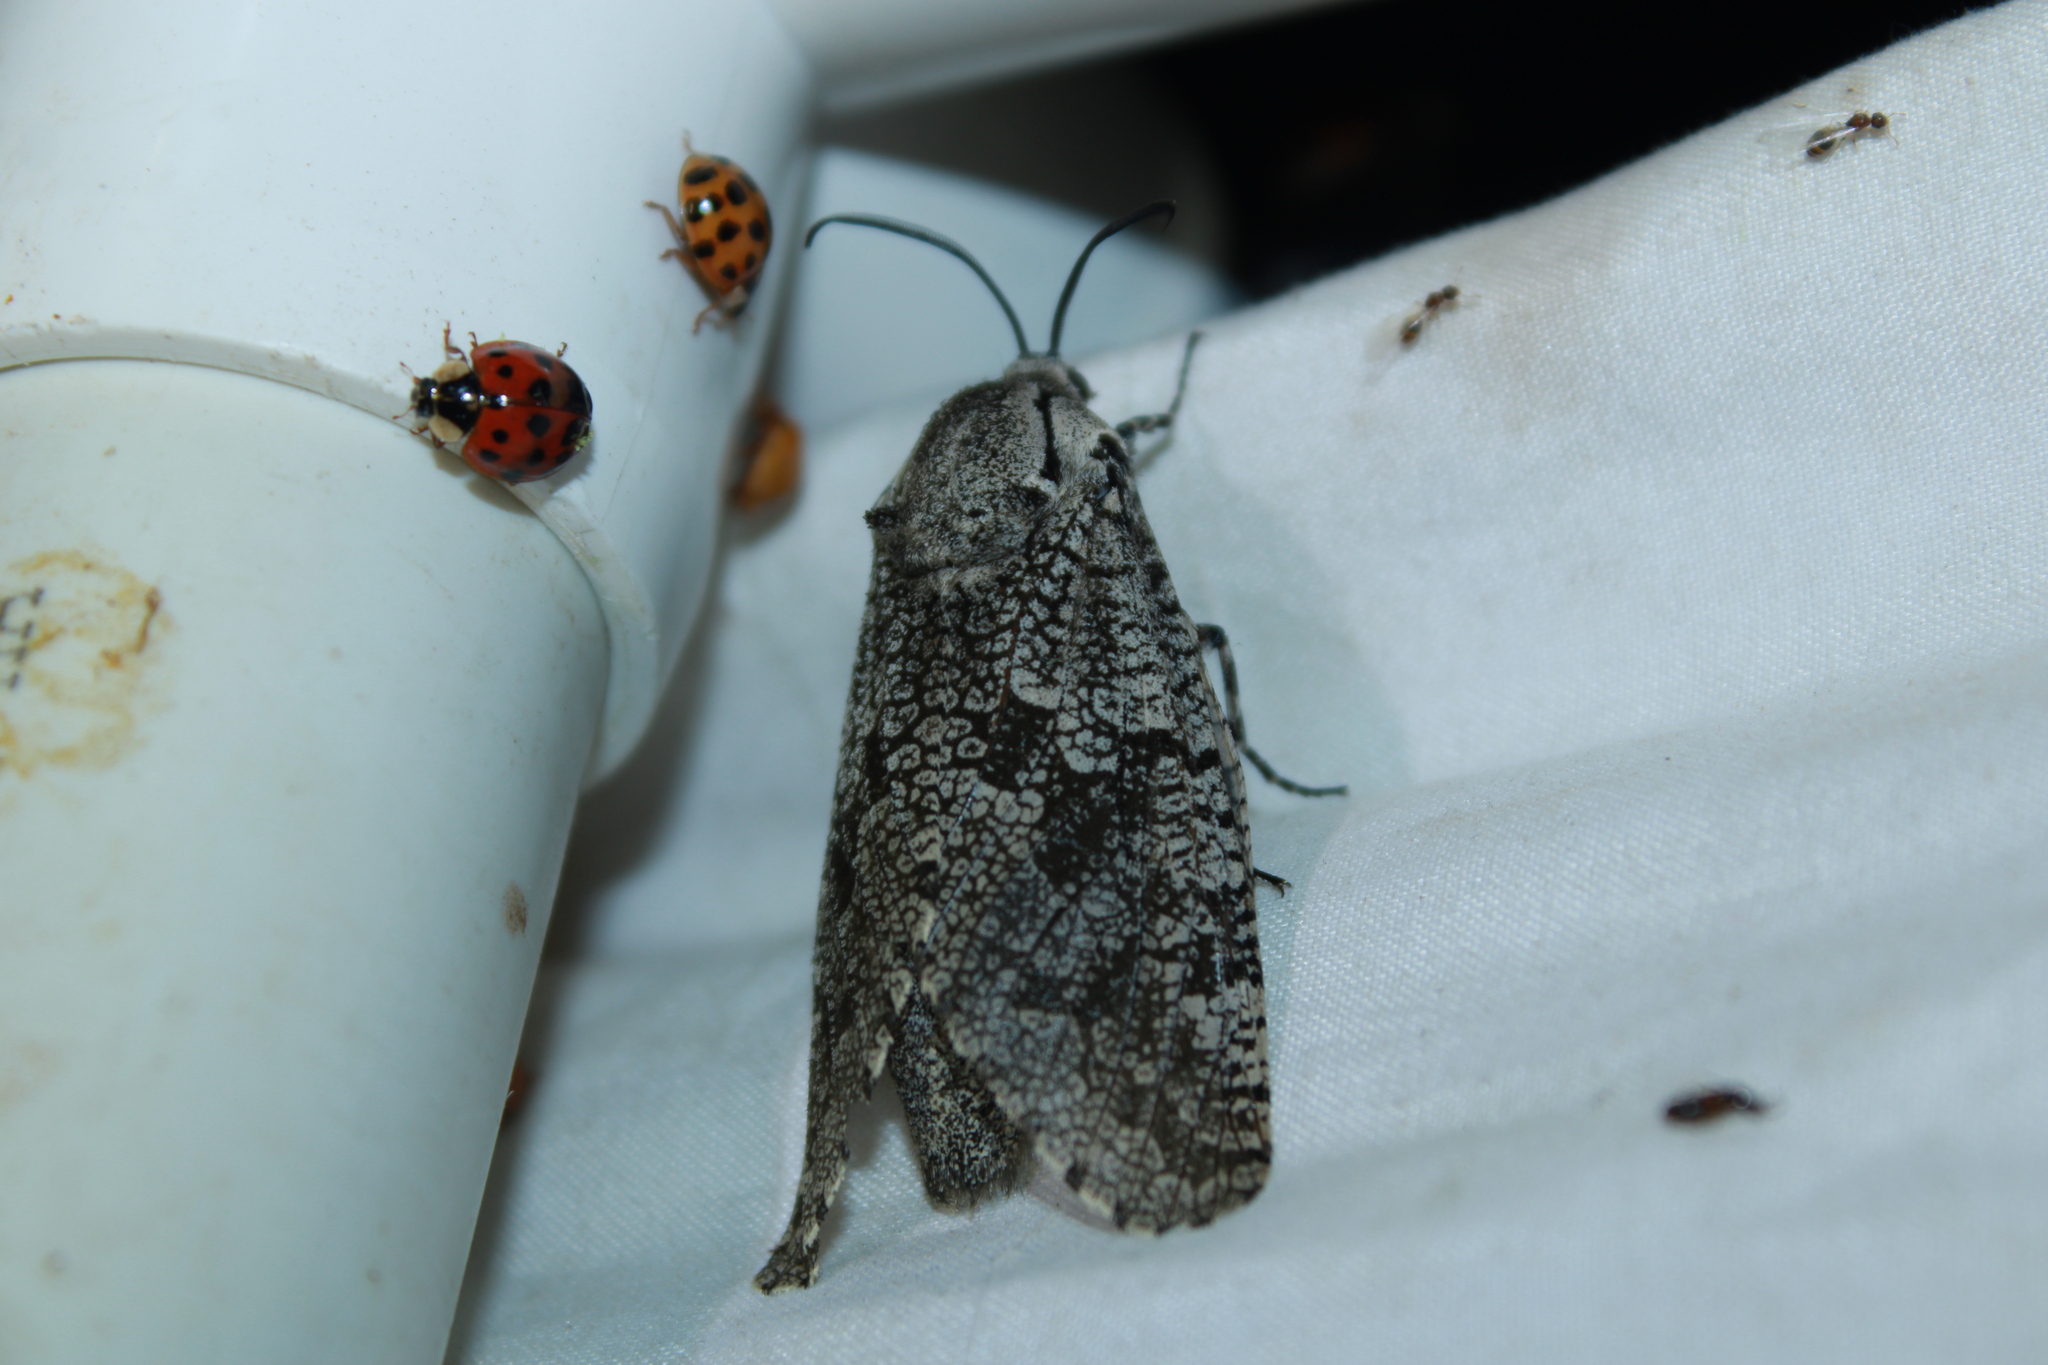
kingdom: Animalia
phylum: Arthropoda
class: Insecta
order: Lepidoptera
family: Cossidae
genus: Prionoxystus
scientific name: Prionoxystus robiniae
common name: Carpenterworm
